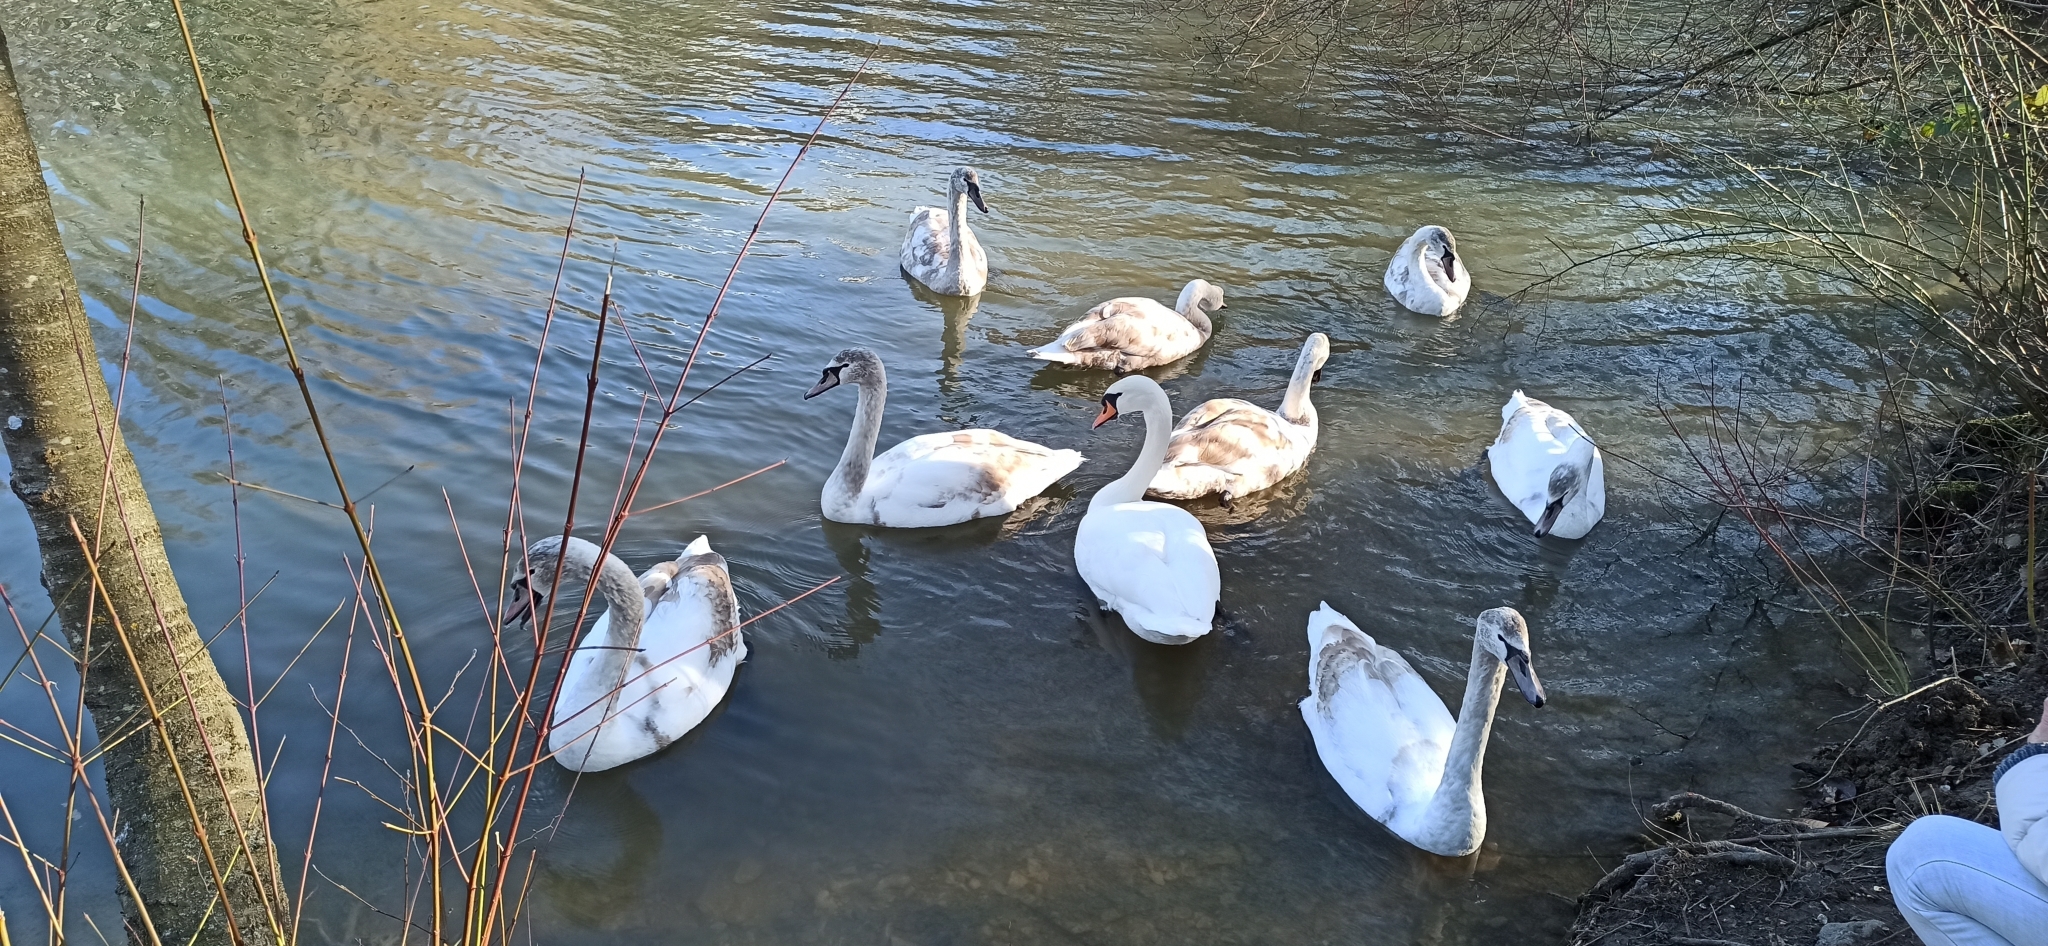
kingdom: Animalia
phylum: Chordata
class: Aves
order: Anseriformes
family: Anatidae
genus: Cygnus
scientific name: Cygnus olor
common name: Mute swan
